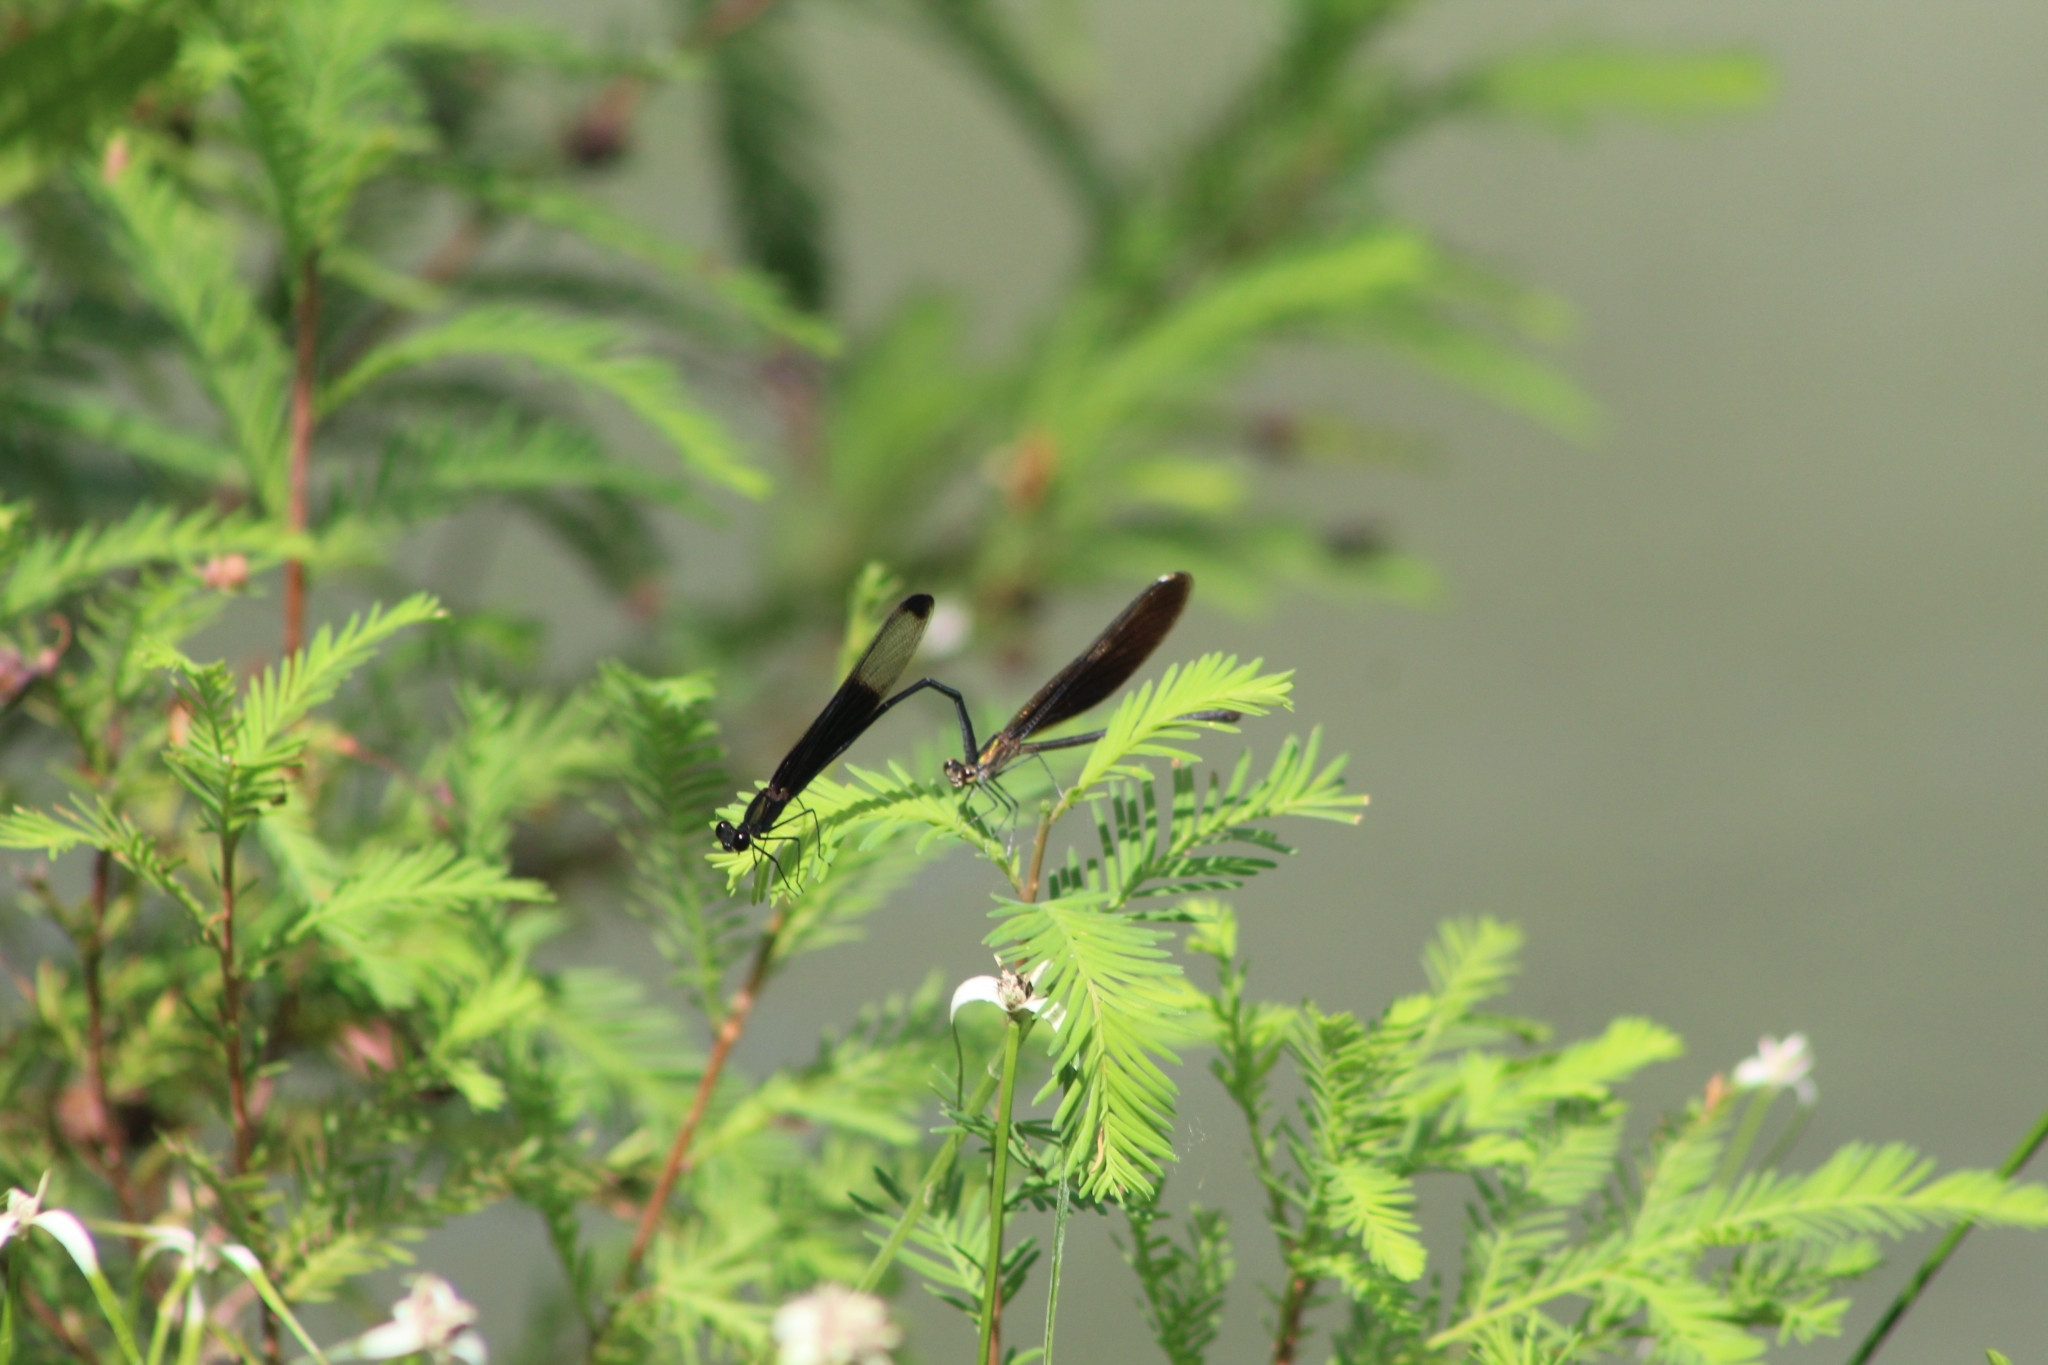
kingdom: Animalia
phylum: Arthropoda
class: Insecta
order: Odonata
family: Calopterygidae
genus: Hetaerina
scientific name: Hetaerina titia
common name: Smoky rubyspot
